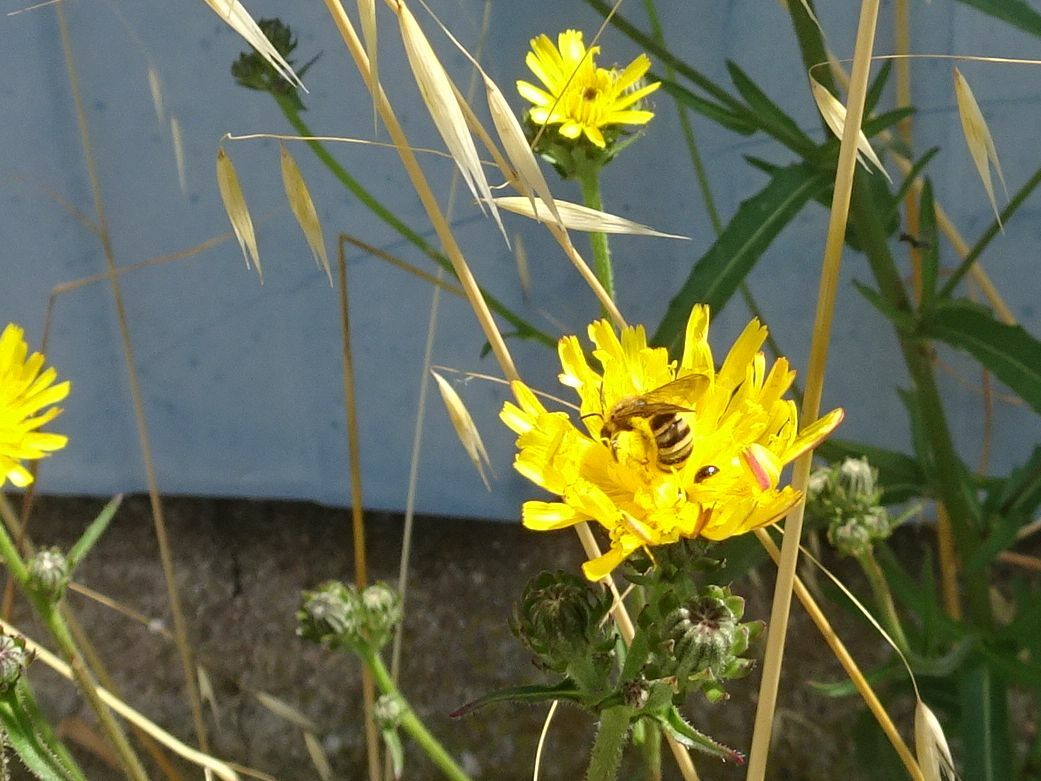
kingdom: Animalia
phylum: Arthropoda
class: Insecta
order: Hymenoptera
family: Halictidae
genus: Halictus
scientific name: Halictus scabiosae
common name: Great banded furrow bee
